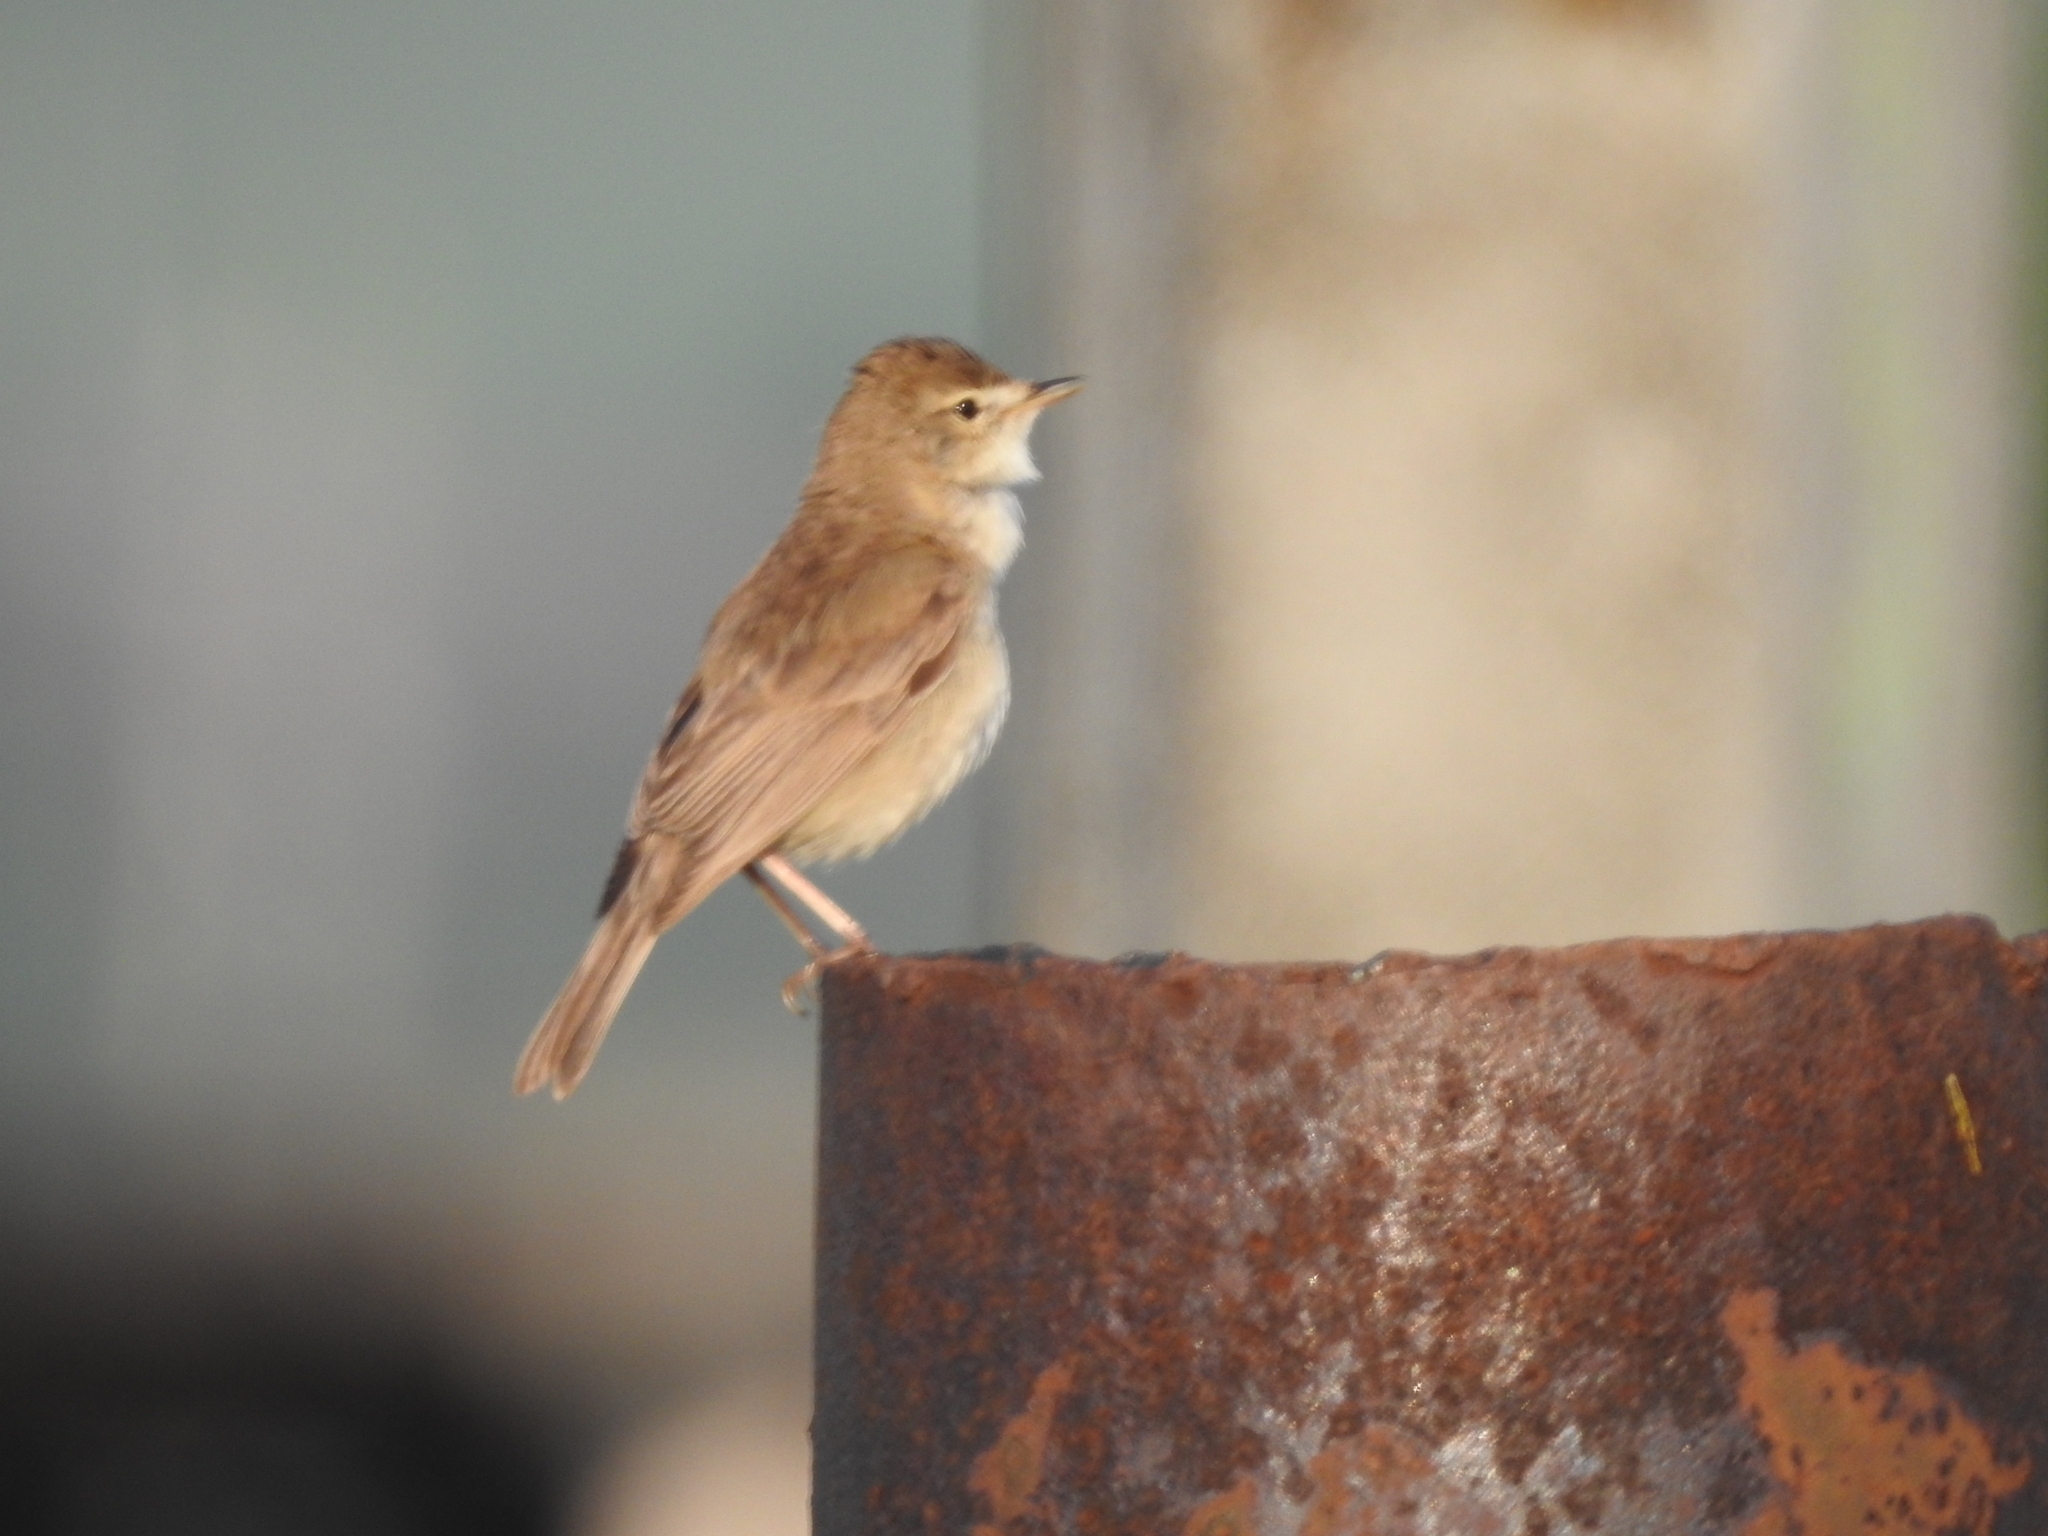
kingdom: Animalia
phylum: Chordata
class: Aves
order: Passeriformes
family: Acrocephalidae
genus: Iduna
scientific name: Iduna caligata
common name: Booted warbler
